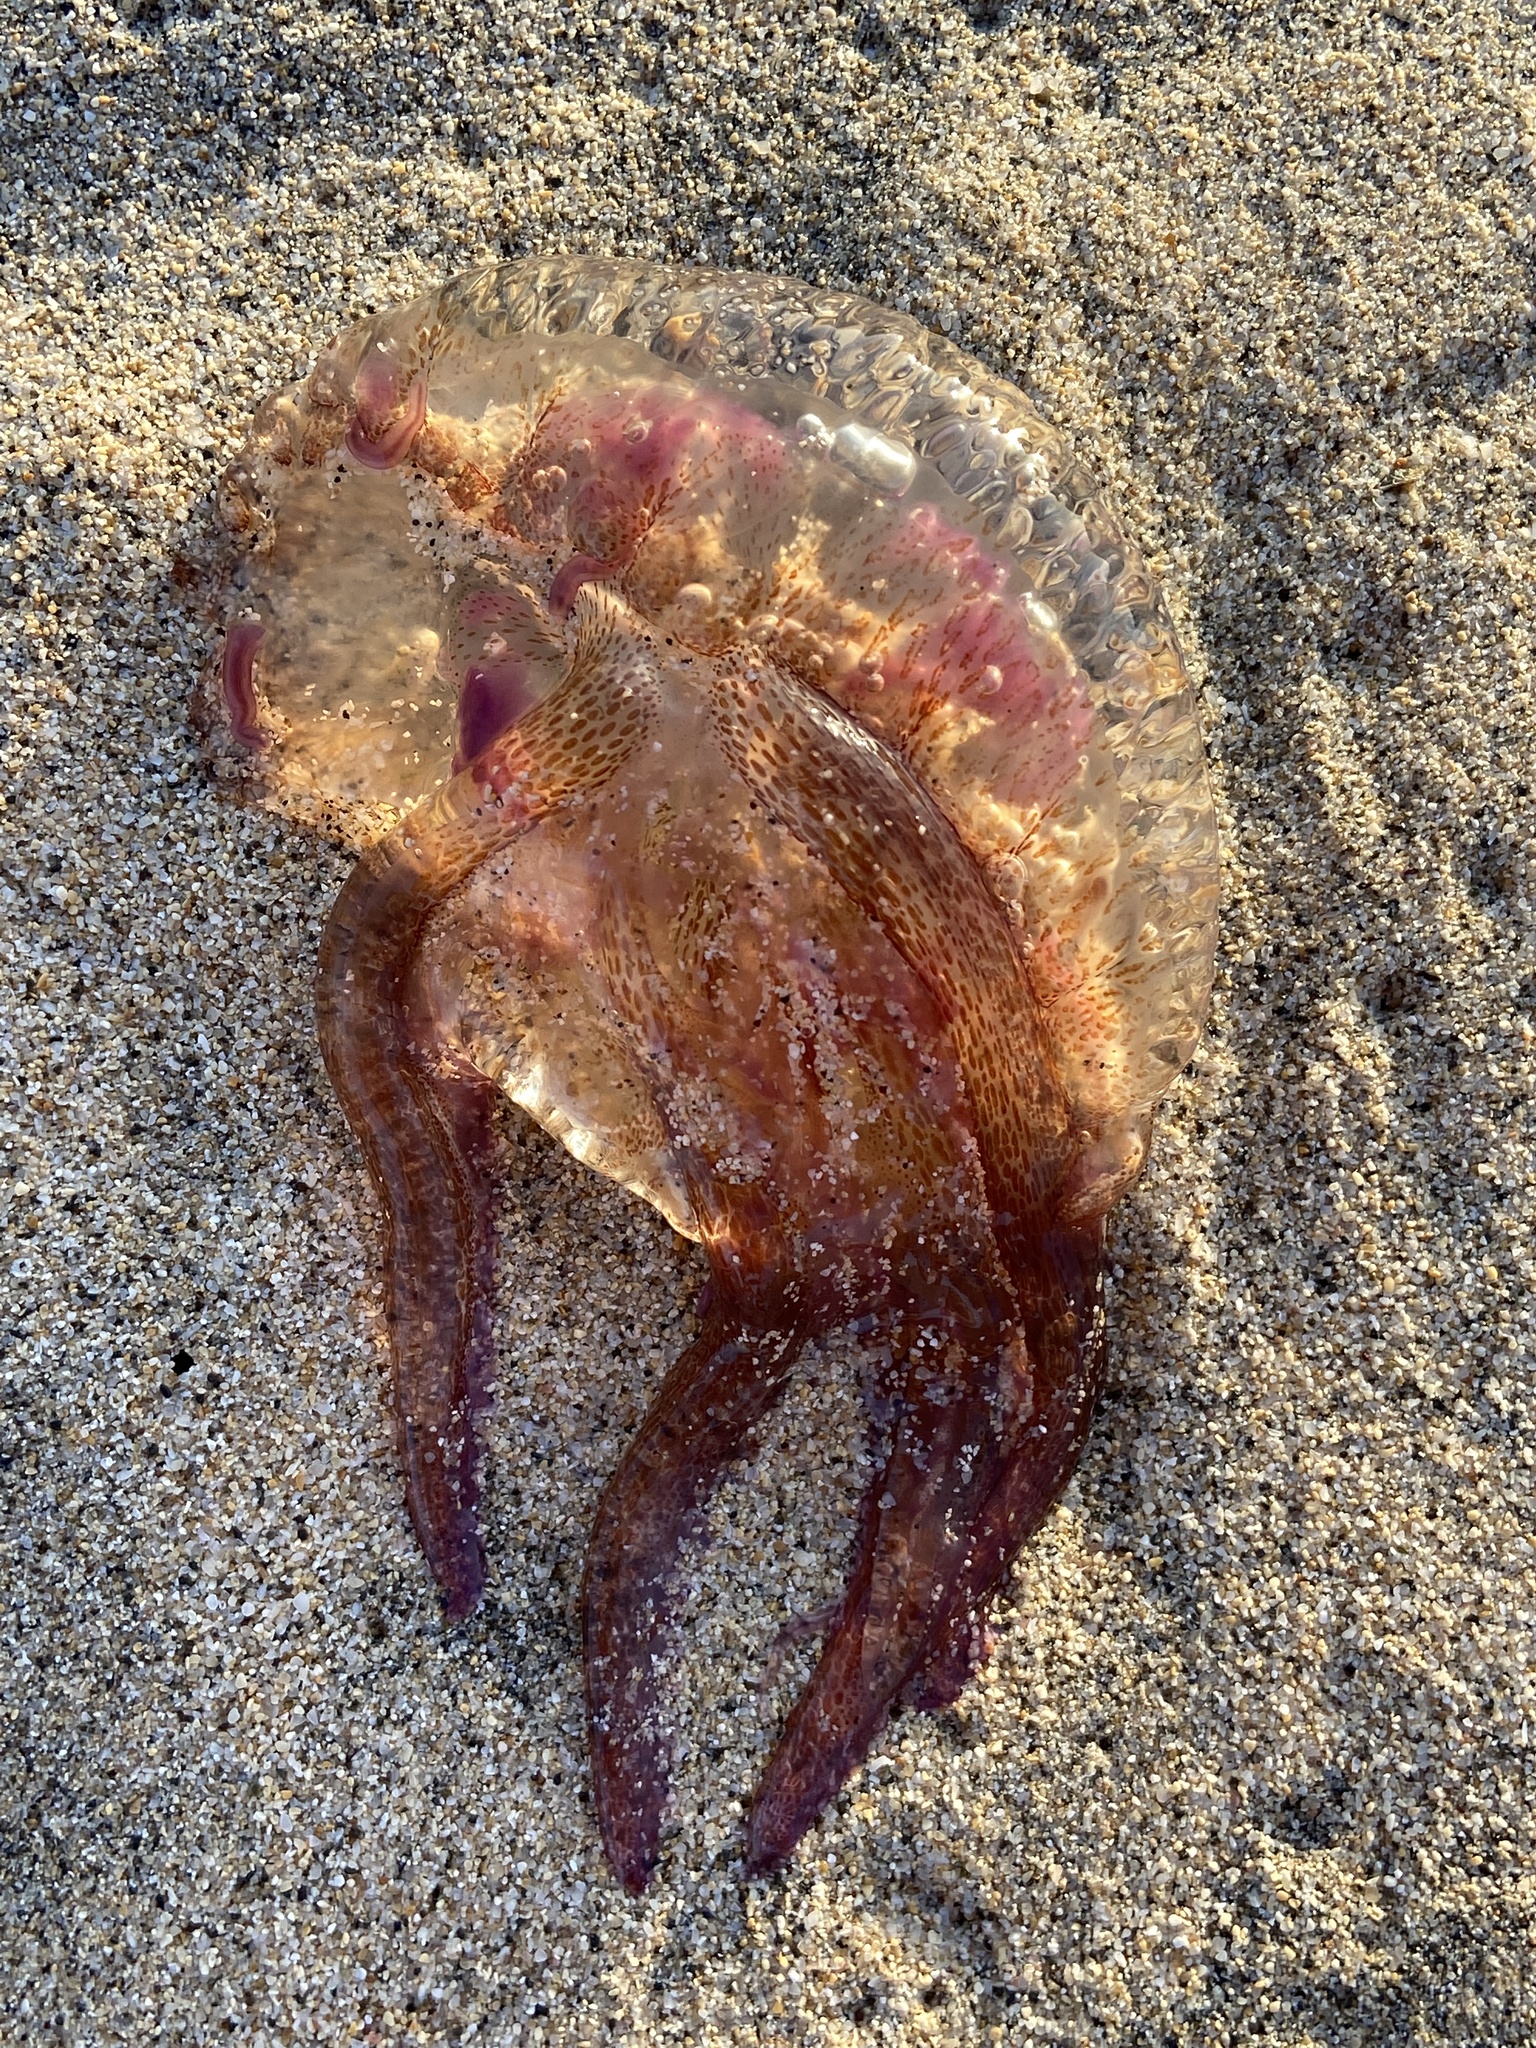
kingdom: Animalia
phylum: Cnidaria
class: Scyphozoa
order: Semaeostomeae
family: Pelagiidae
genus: Pelagia
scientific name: Pelagia noctiluca
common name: Mauve stinger
